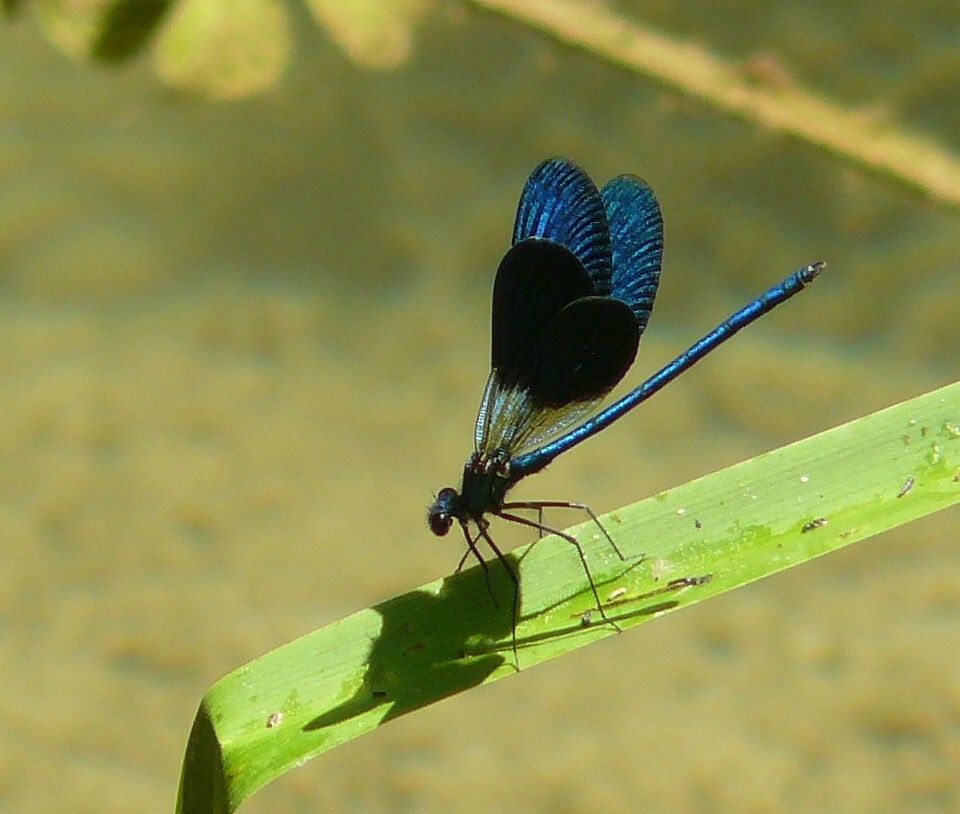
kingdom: Animalia
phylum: Arthropoda
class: Insecta
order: Odonata
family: Calopterygidae
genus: Calopteryx
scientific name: Calopteryx splendens
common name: Banded demoiselle
